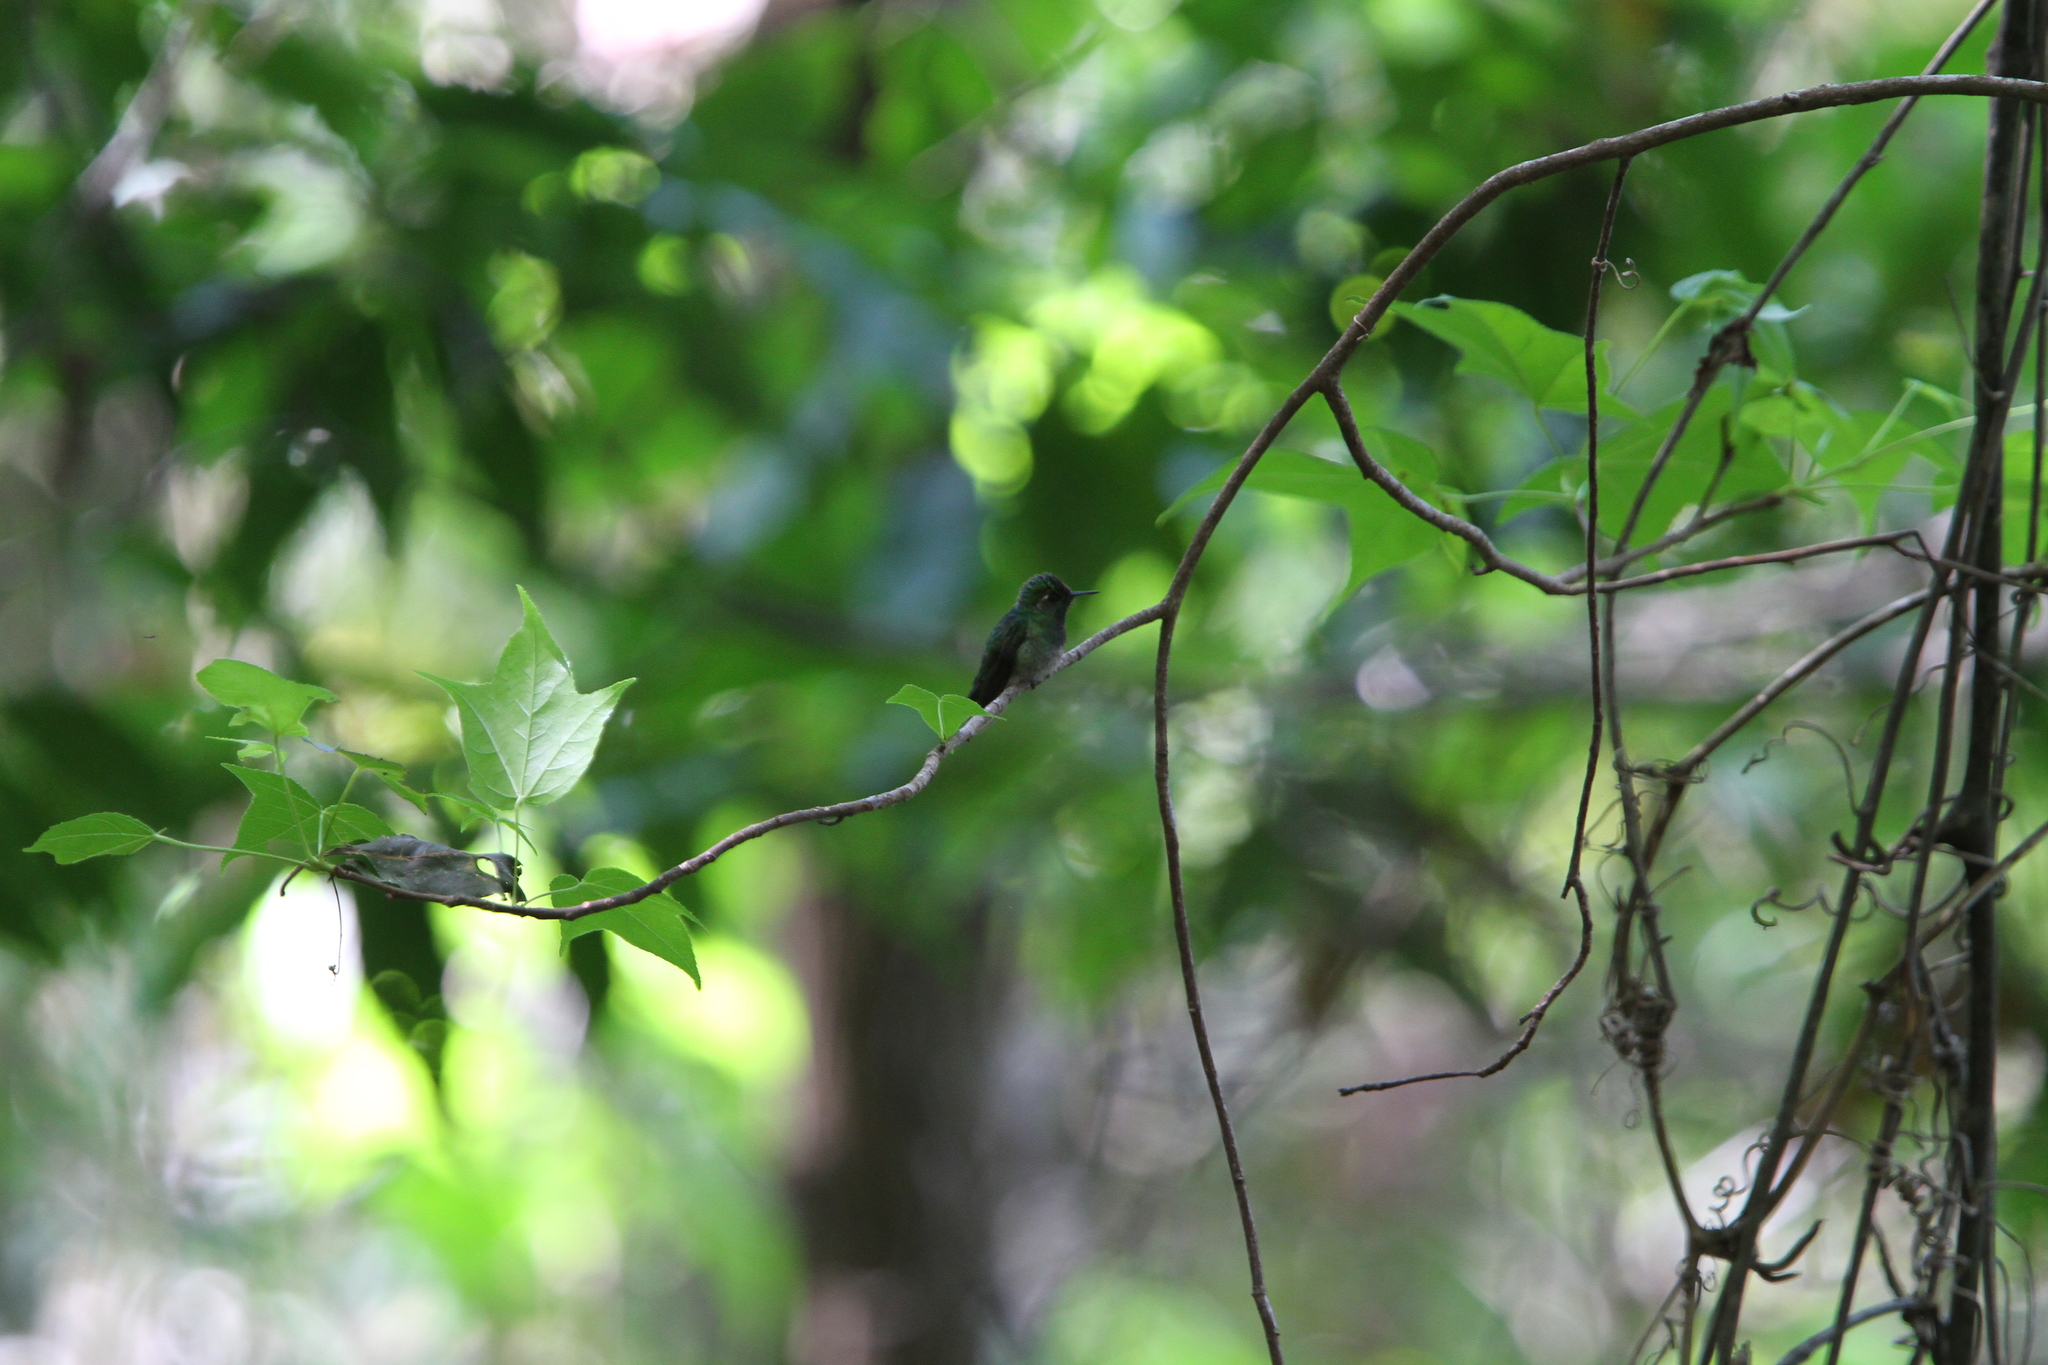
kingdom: Animalia
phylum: Chordata
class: Aves
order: Apodiformes
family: Trochilidae
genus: Abeillia
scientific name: Abeillia abeillei
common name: Emerald-chinned hummingbird
